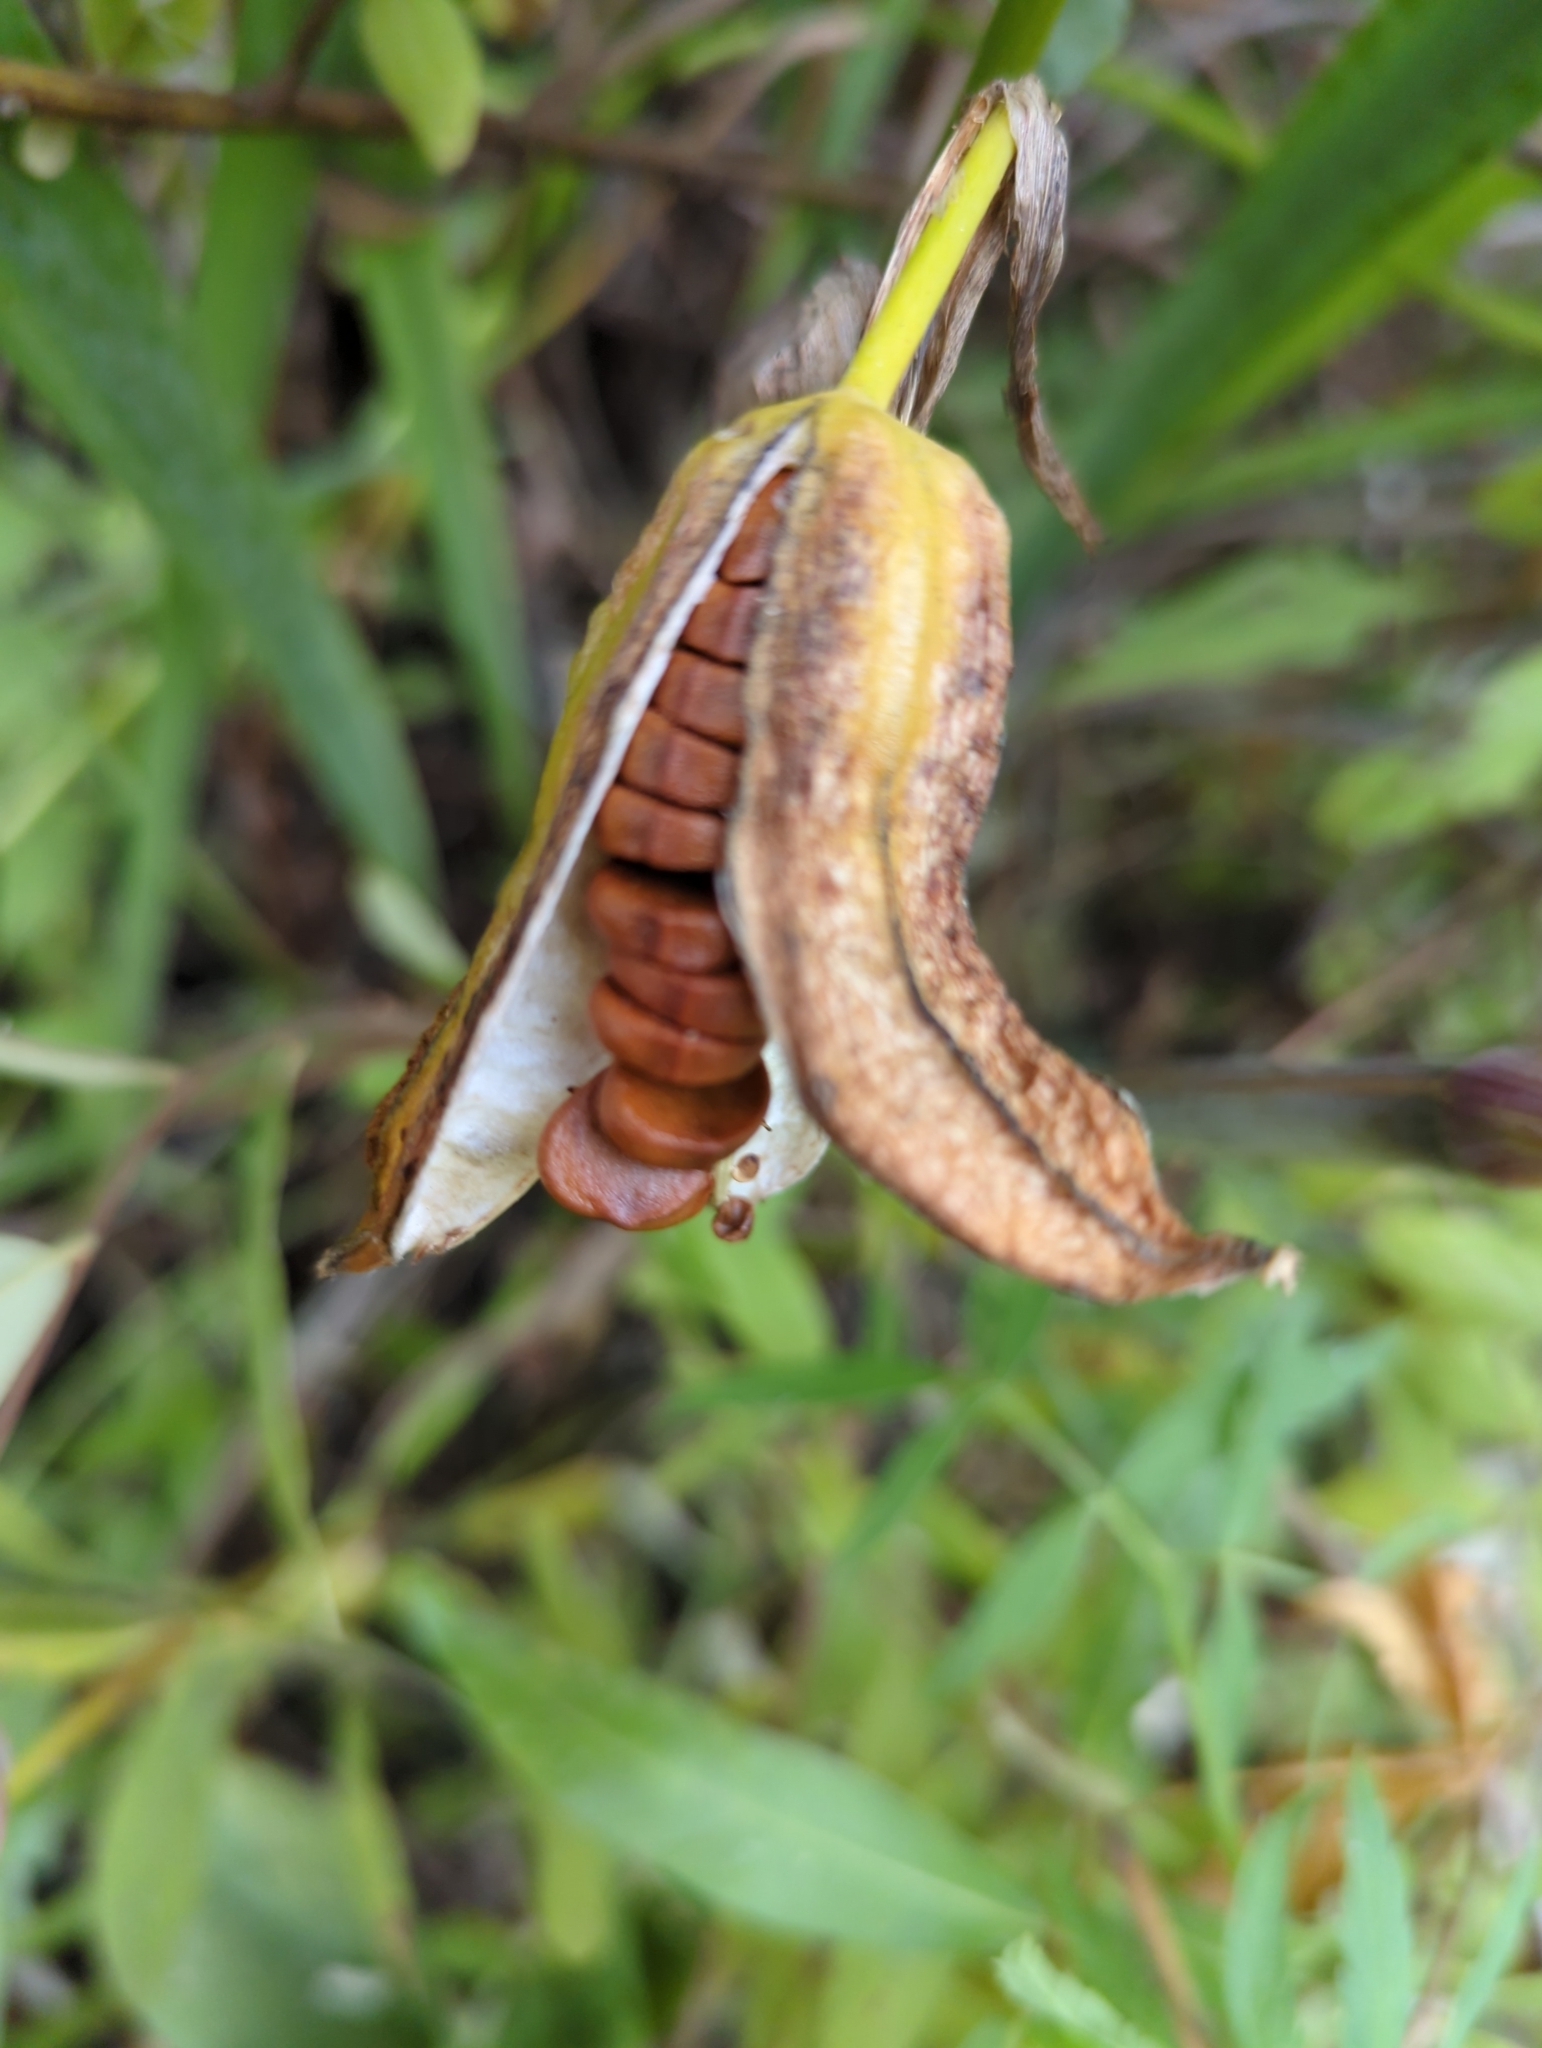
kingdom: Plantae
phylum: Tracheophyta
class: Liliopsida
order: Asparagales
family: Iridaceae
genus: Iris
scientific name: Iris pseudacorus
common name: Yellow flag
